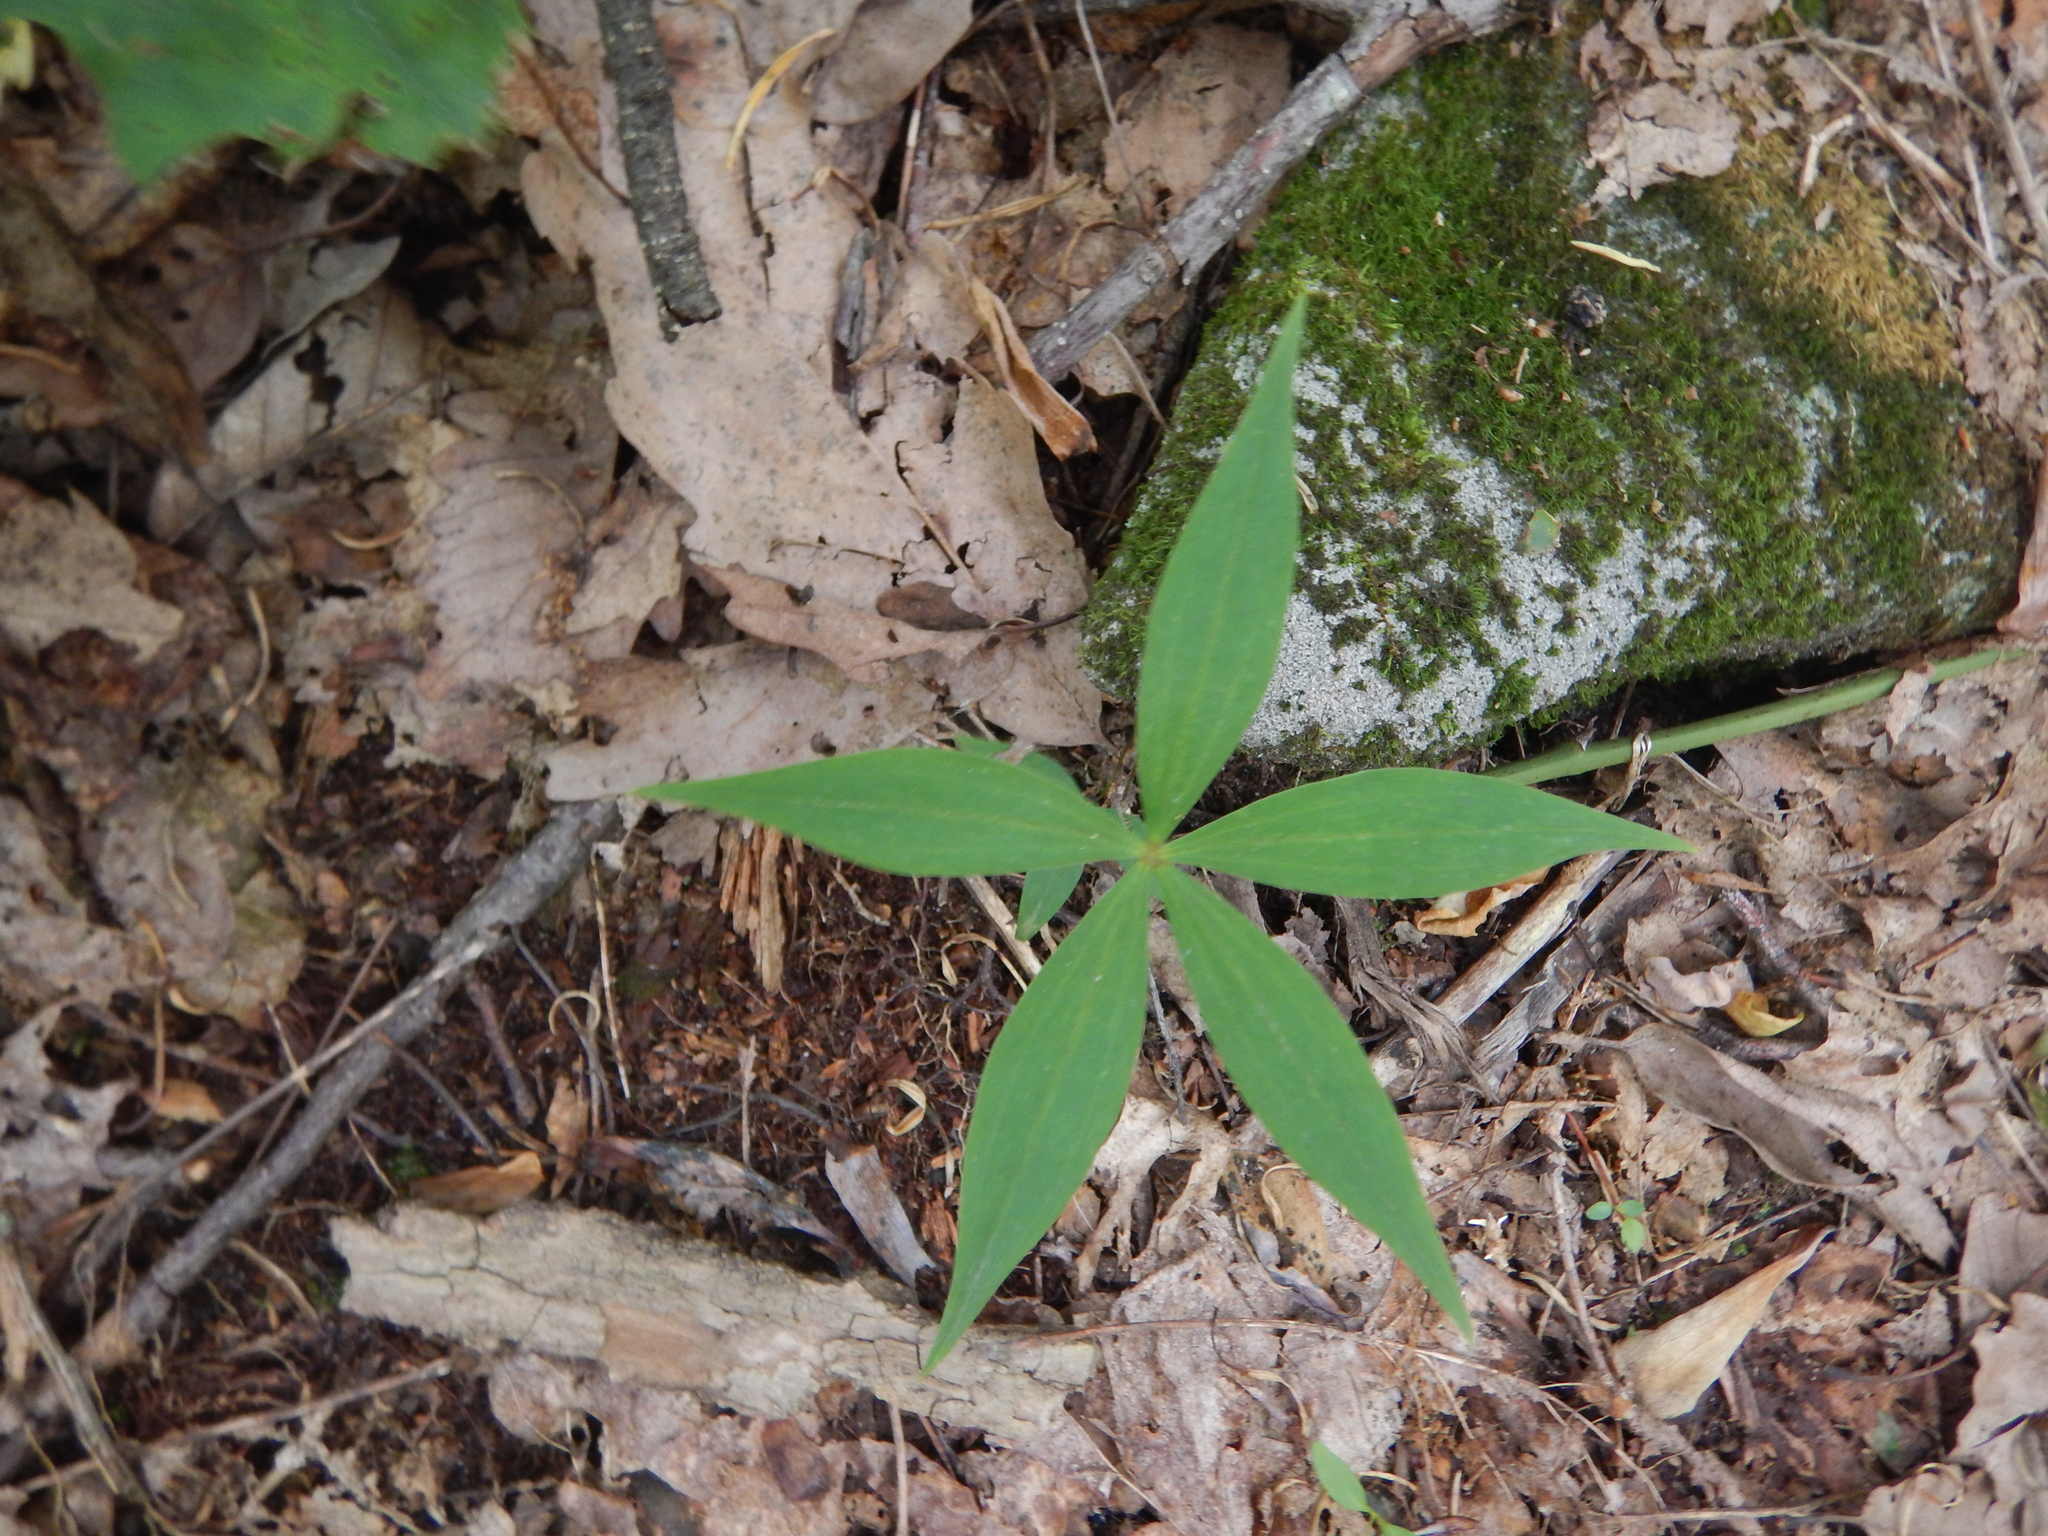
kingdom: Plantae
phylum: Tracheophyta
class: Liliopsida
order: Liliales
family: Liliaceae
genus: Medeola
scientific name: Medeola virginiana
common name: Indian cucumber-root
